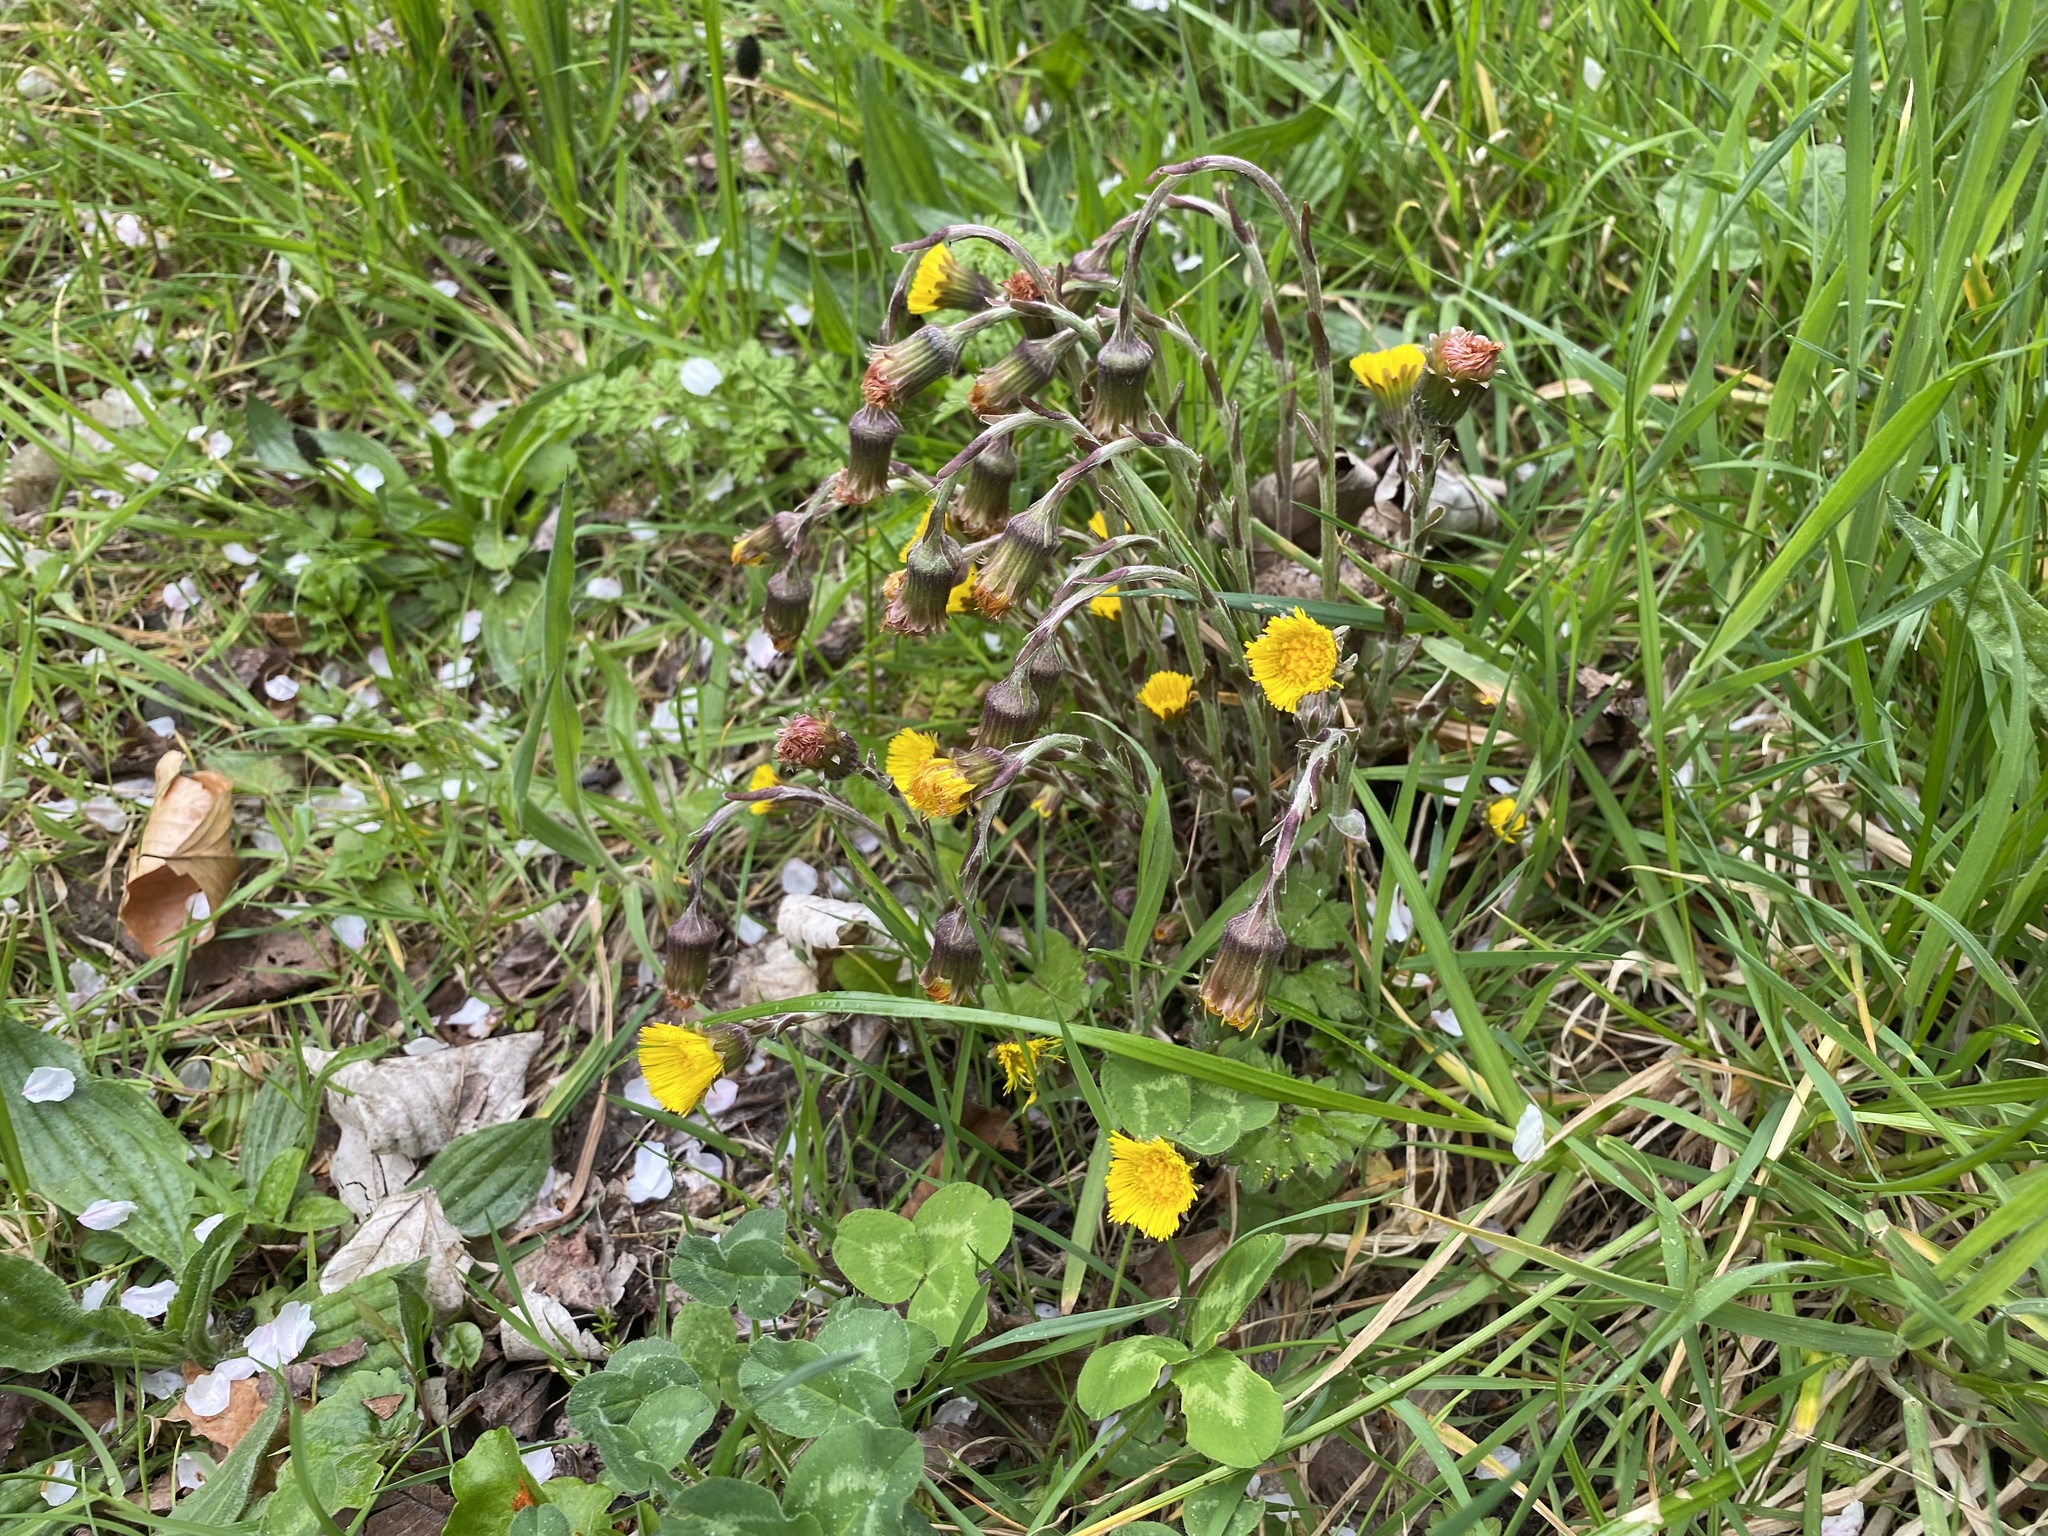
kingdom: Plantae
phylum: Tracheophyta
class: Magnoliopsida
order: Asterales
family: Asteraceae
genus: Tussilago
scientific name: Tussilago farfara
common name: Coltsfoot
